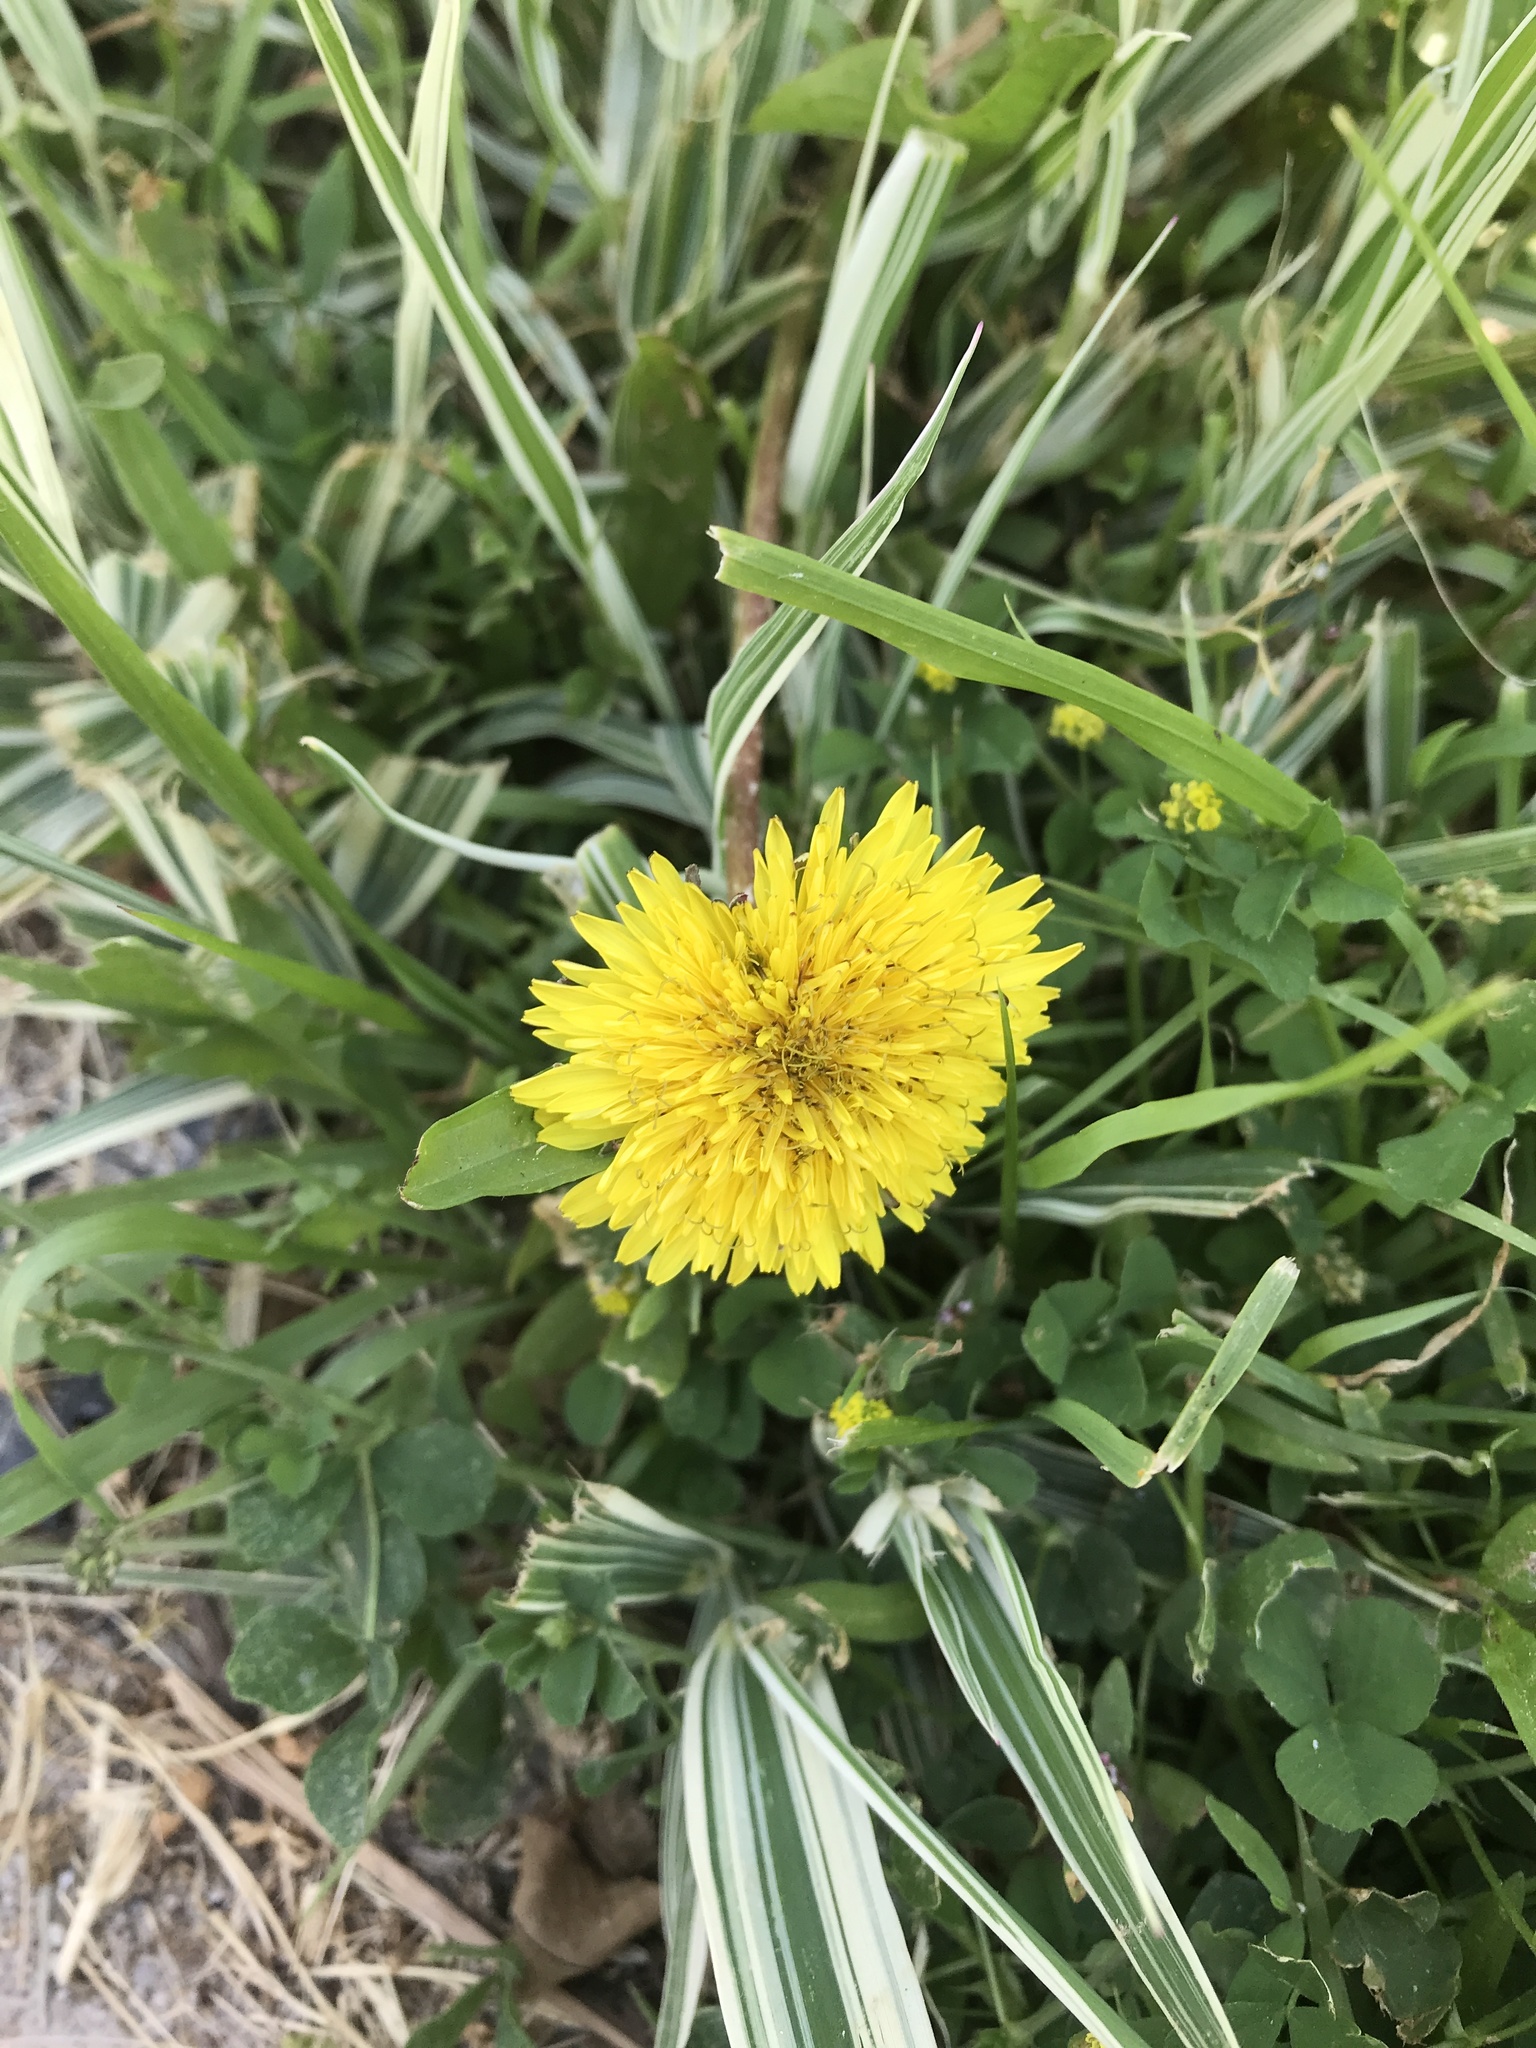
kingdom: Plantae
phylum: Tracheophyta
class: Magnoliopsida
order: Asterales
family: Asteraceae
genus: Taraxacum
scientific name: Taraxacum officinale
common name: Common dandelion
